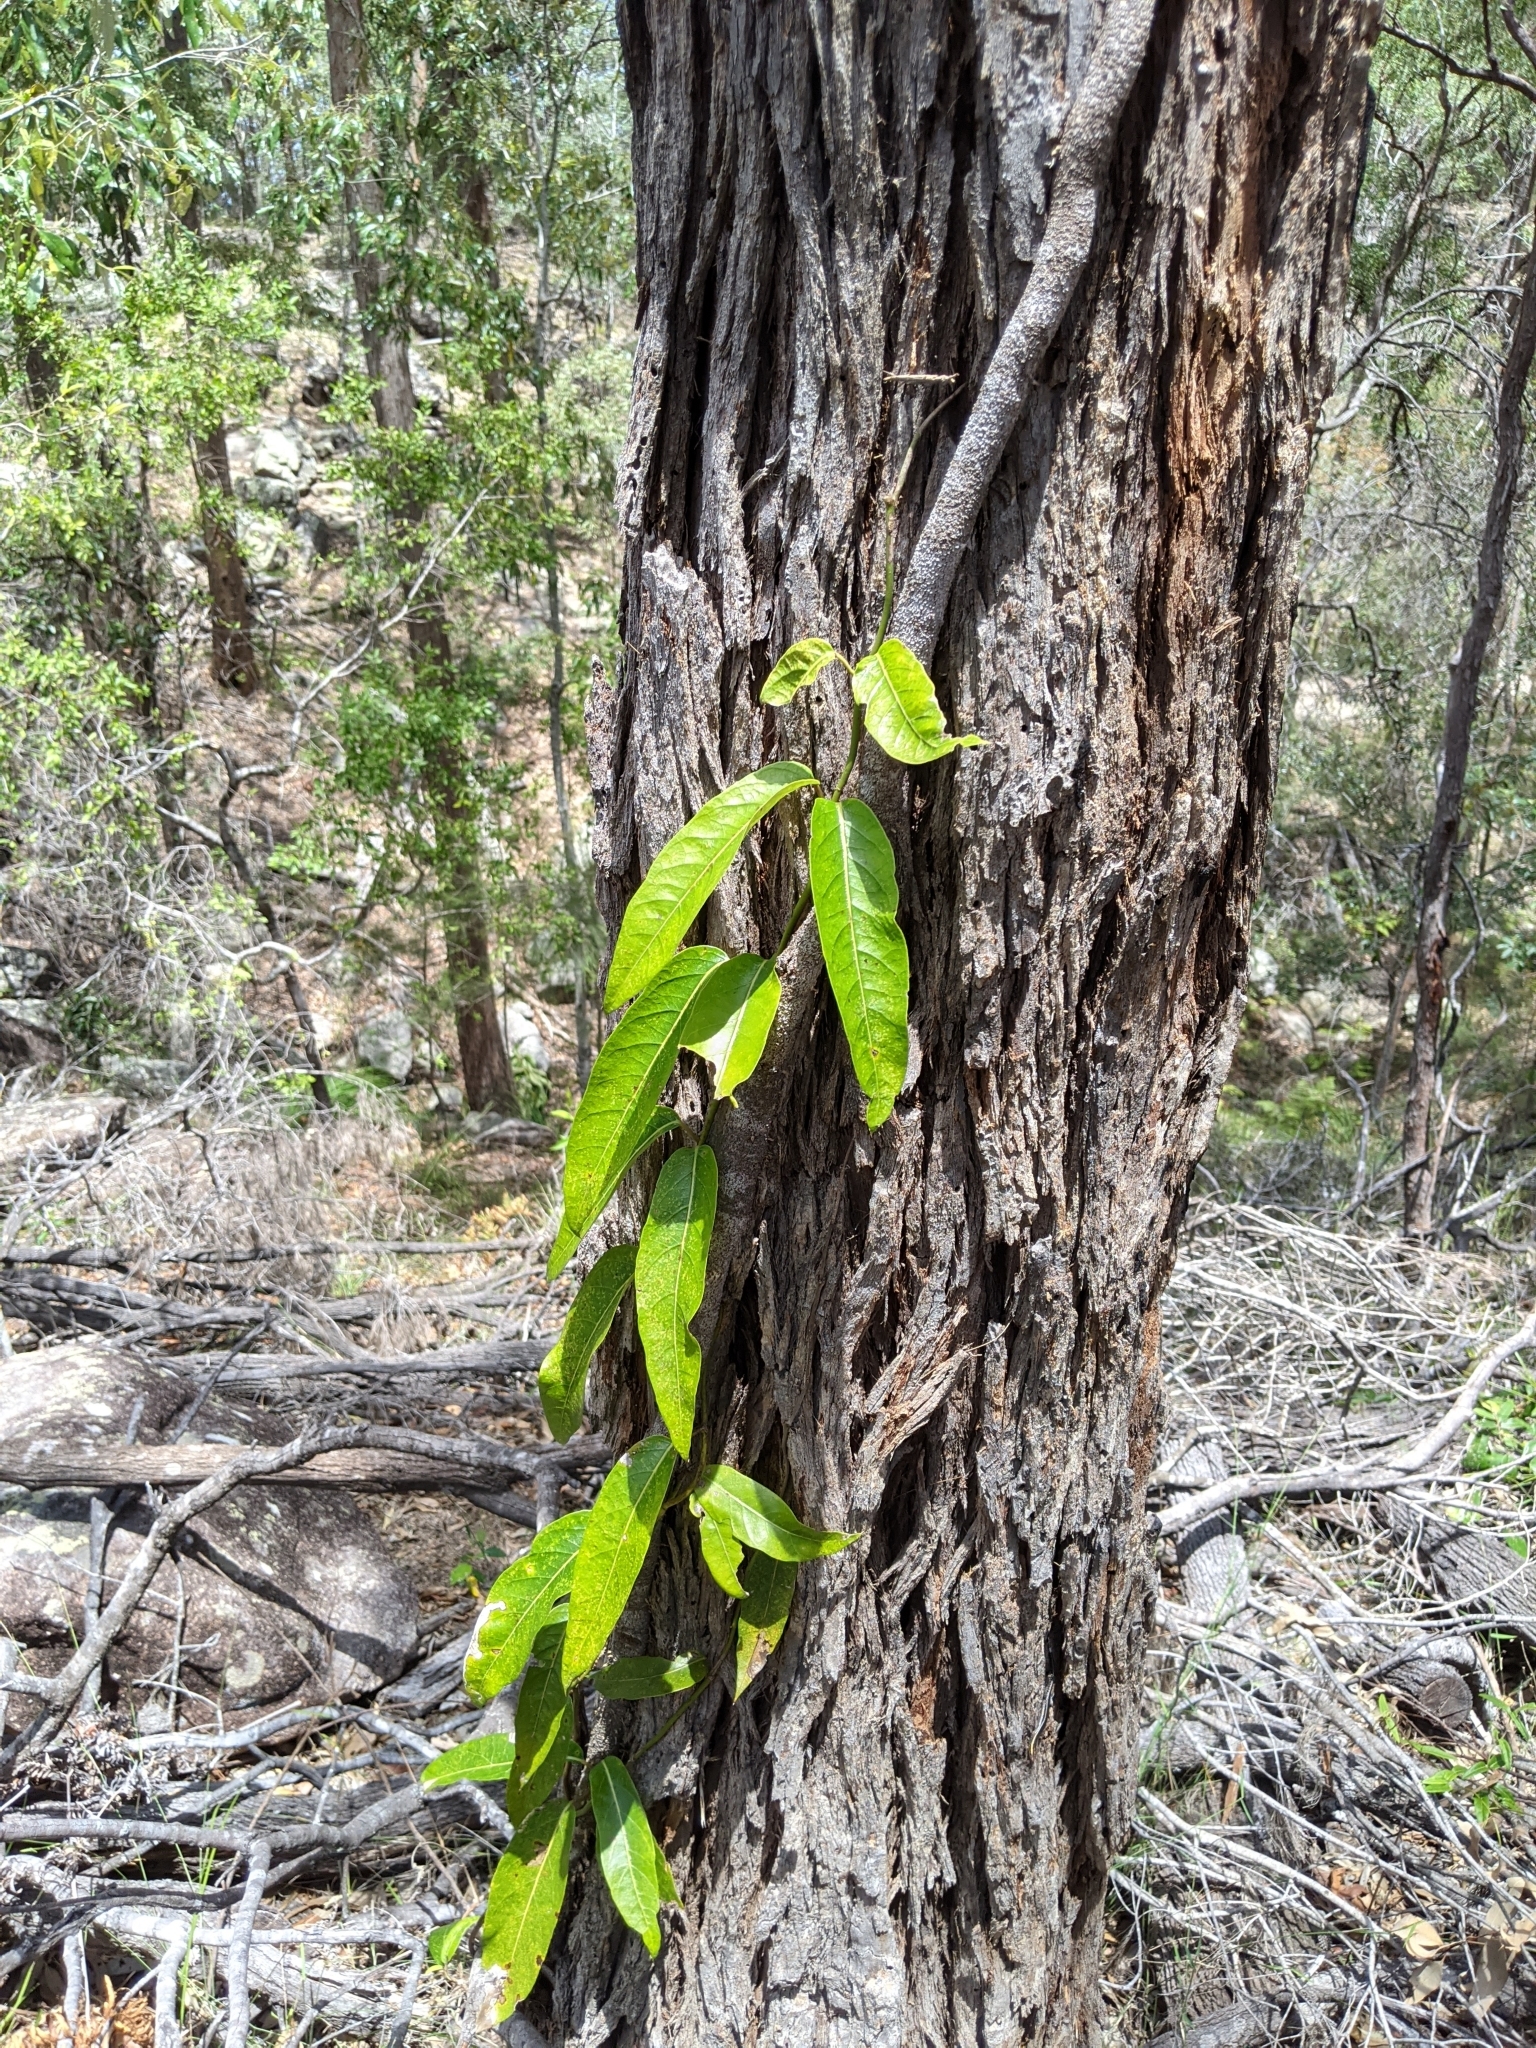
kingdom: Plantae
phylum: Tracheophyta
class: Magnoliopsida
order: Gentianales
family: Apocynaceae
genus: Parsonsia
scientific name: Parsonsia straminea
